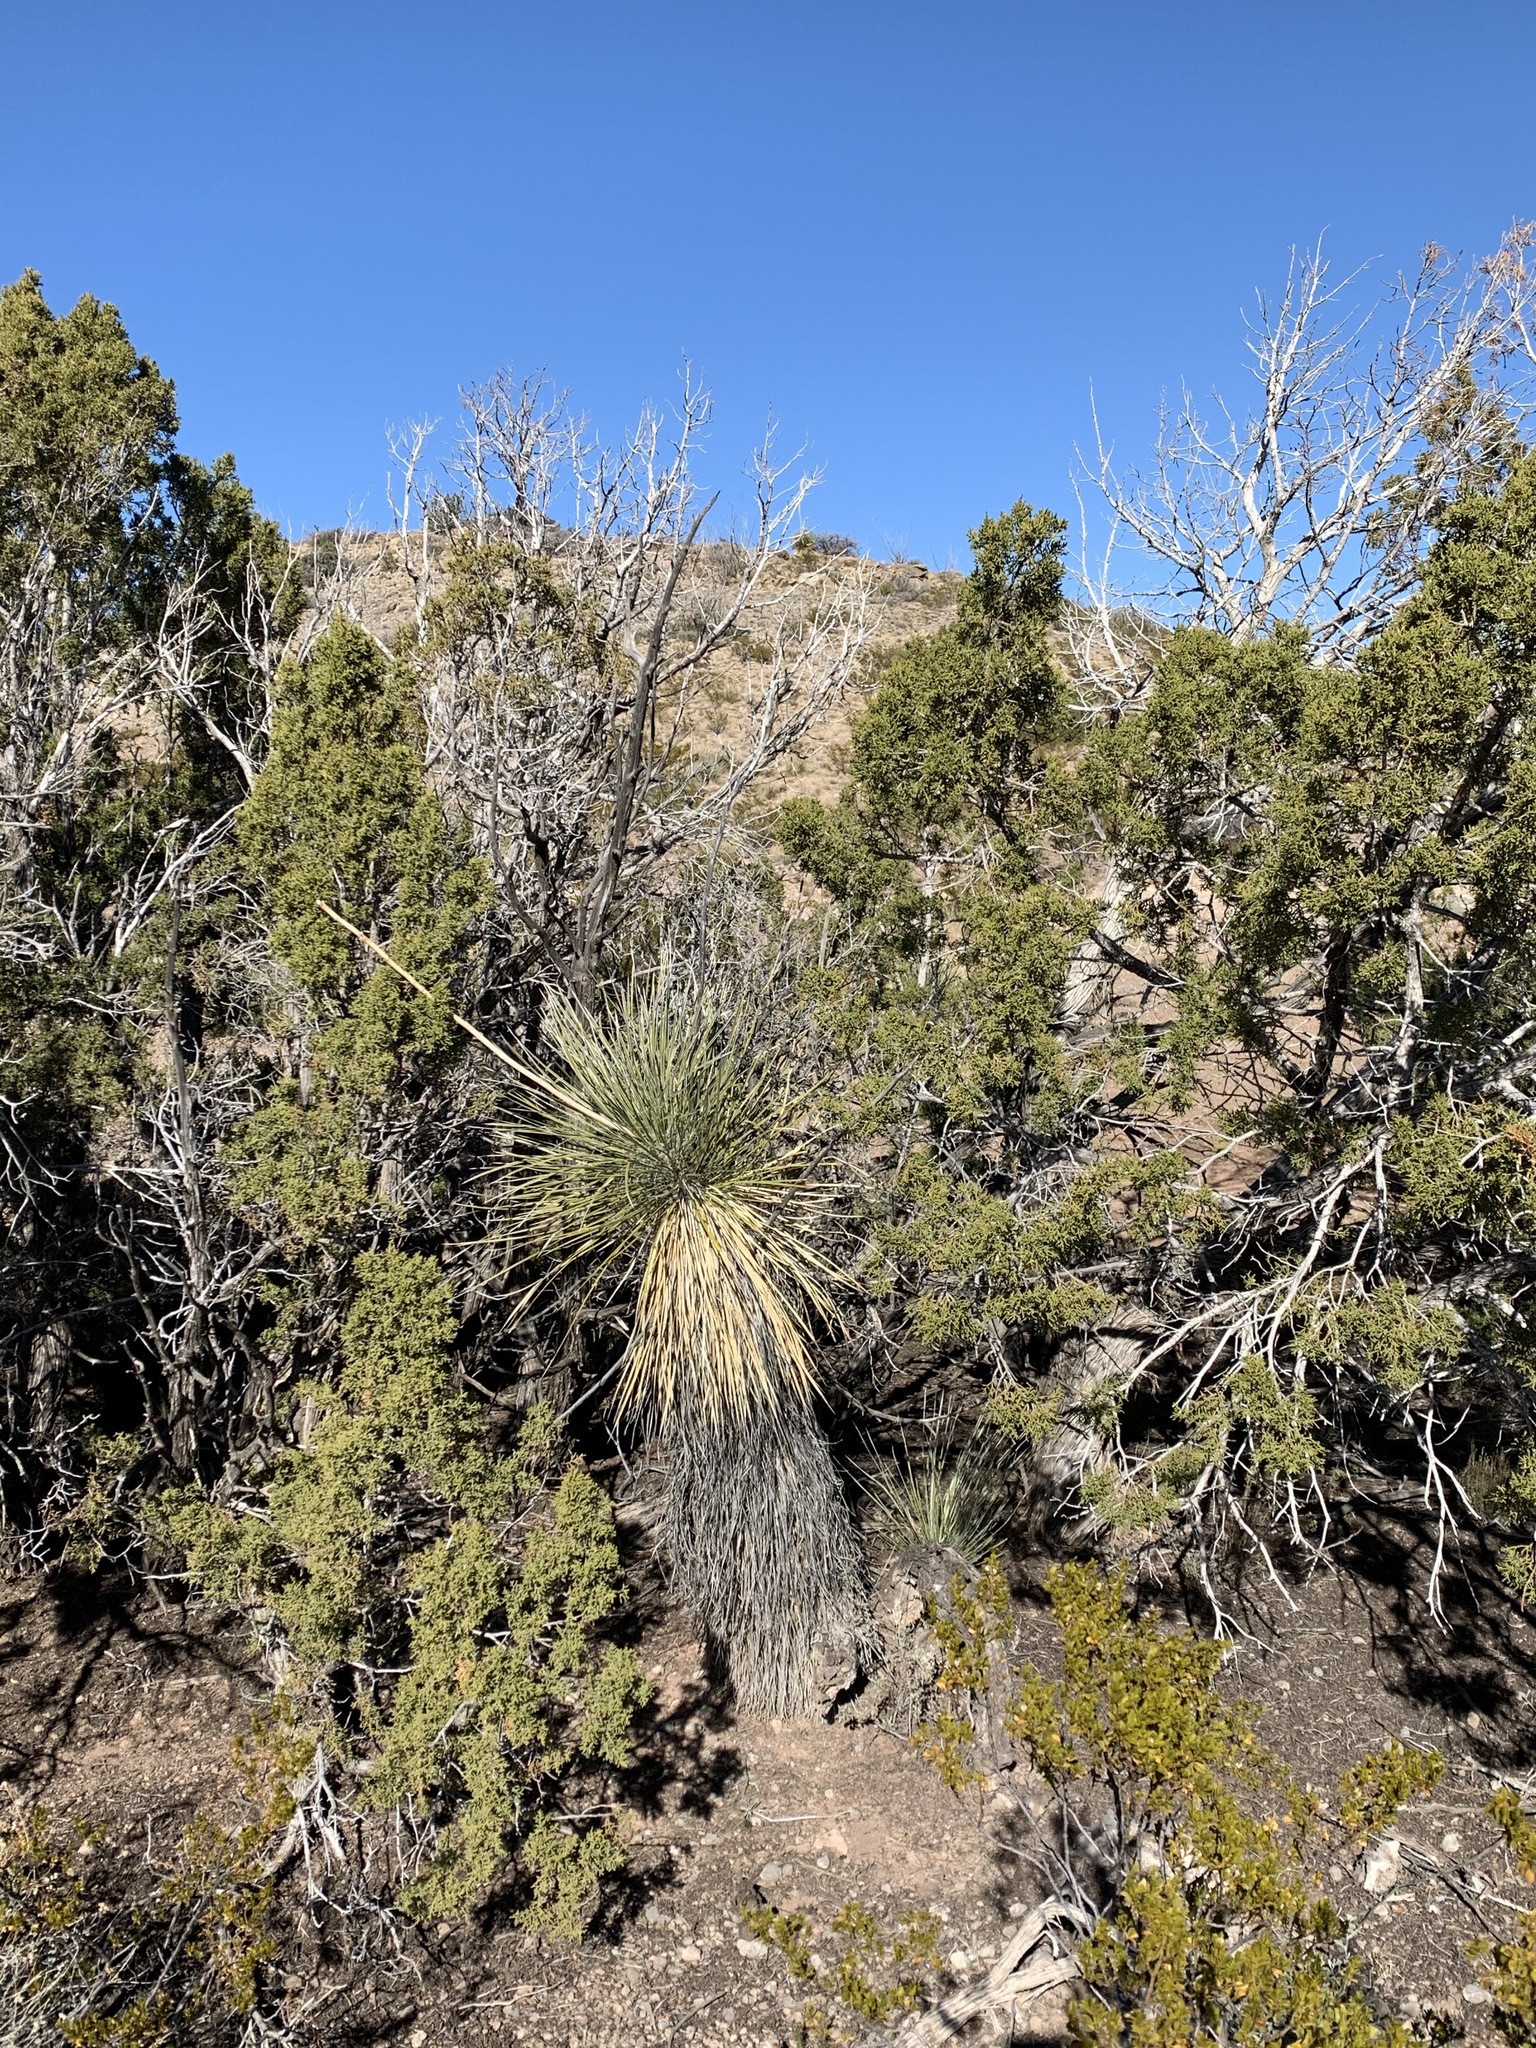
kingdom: Plantae
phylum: Tracheophyta
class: Liliopsida
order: Asparagales
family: Asparagaceae
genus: Yucca
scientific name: Yucca elata
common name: Palmella
